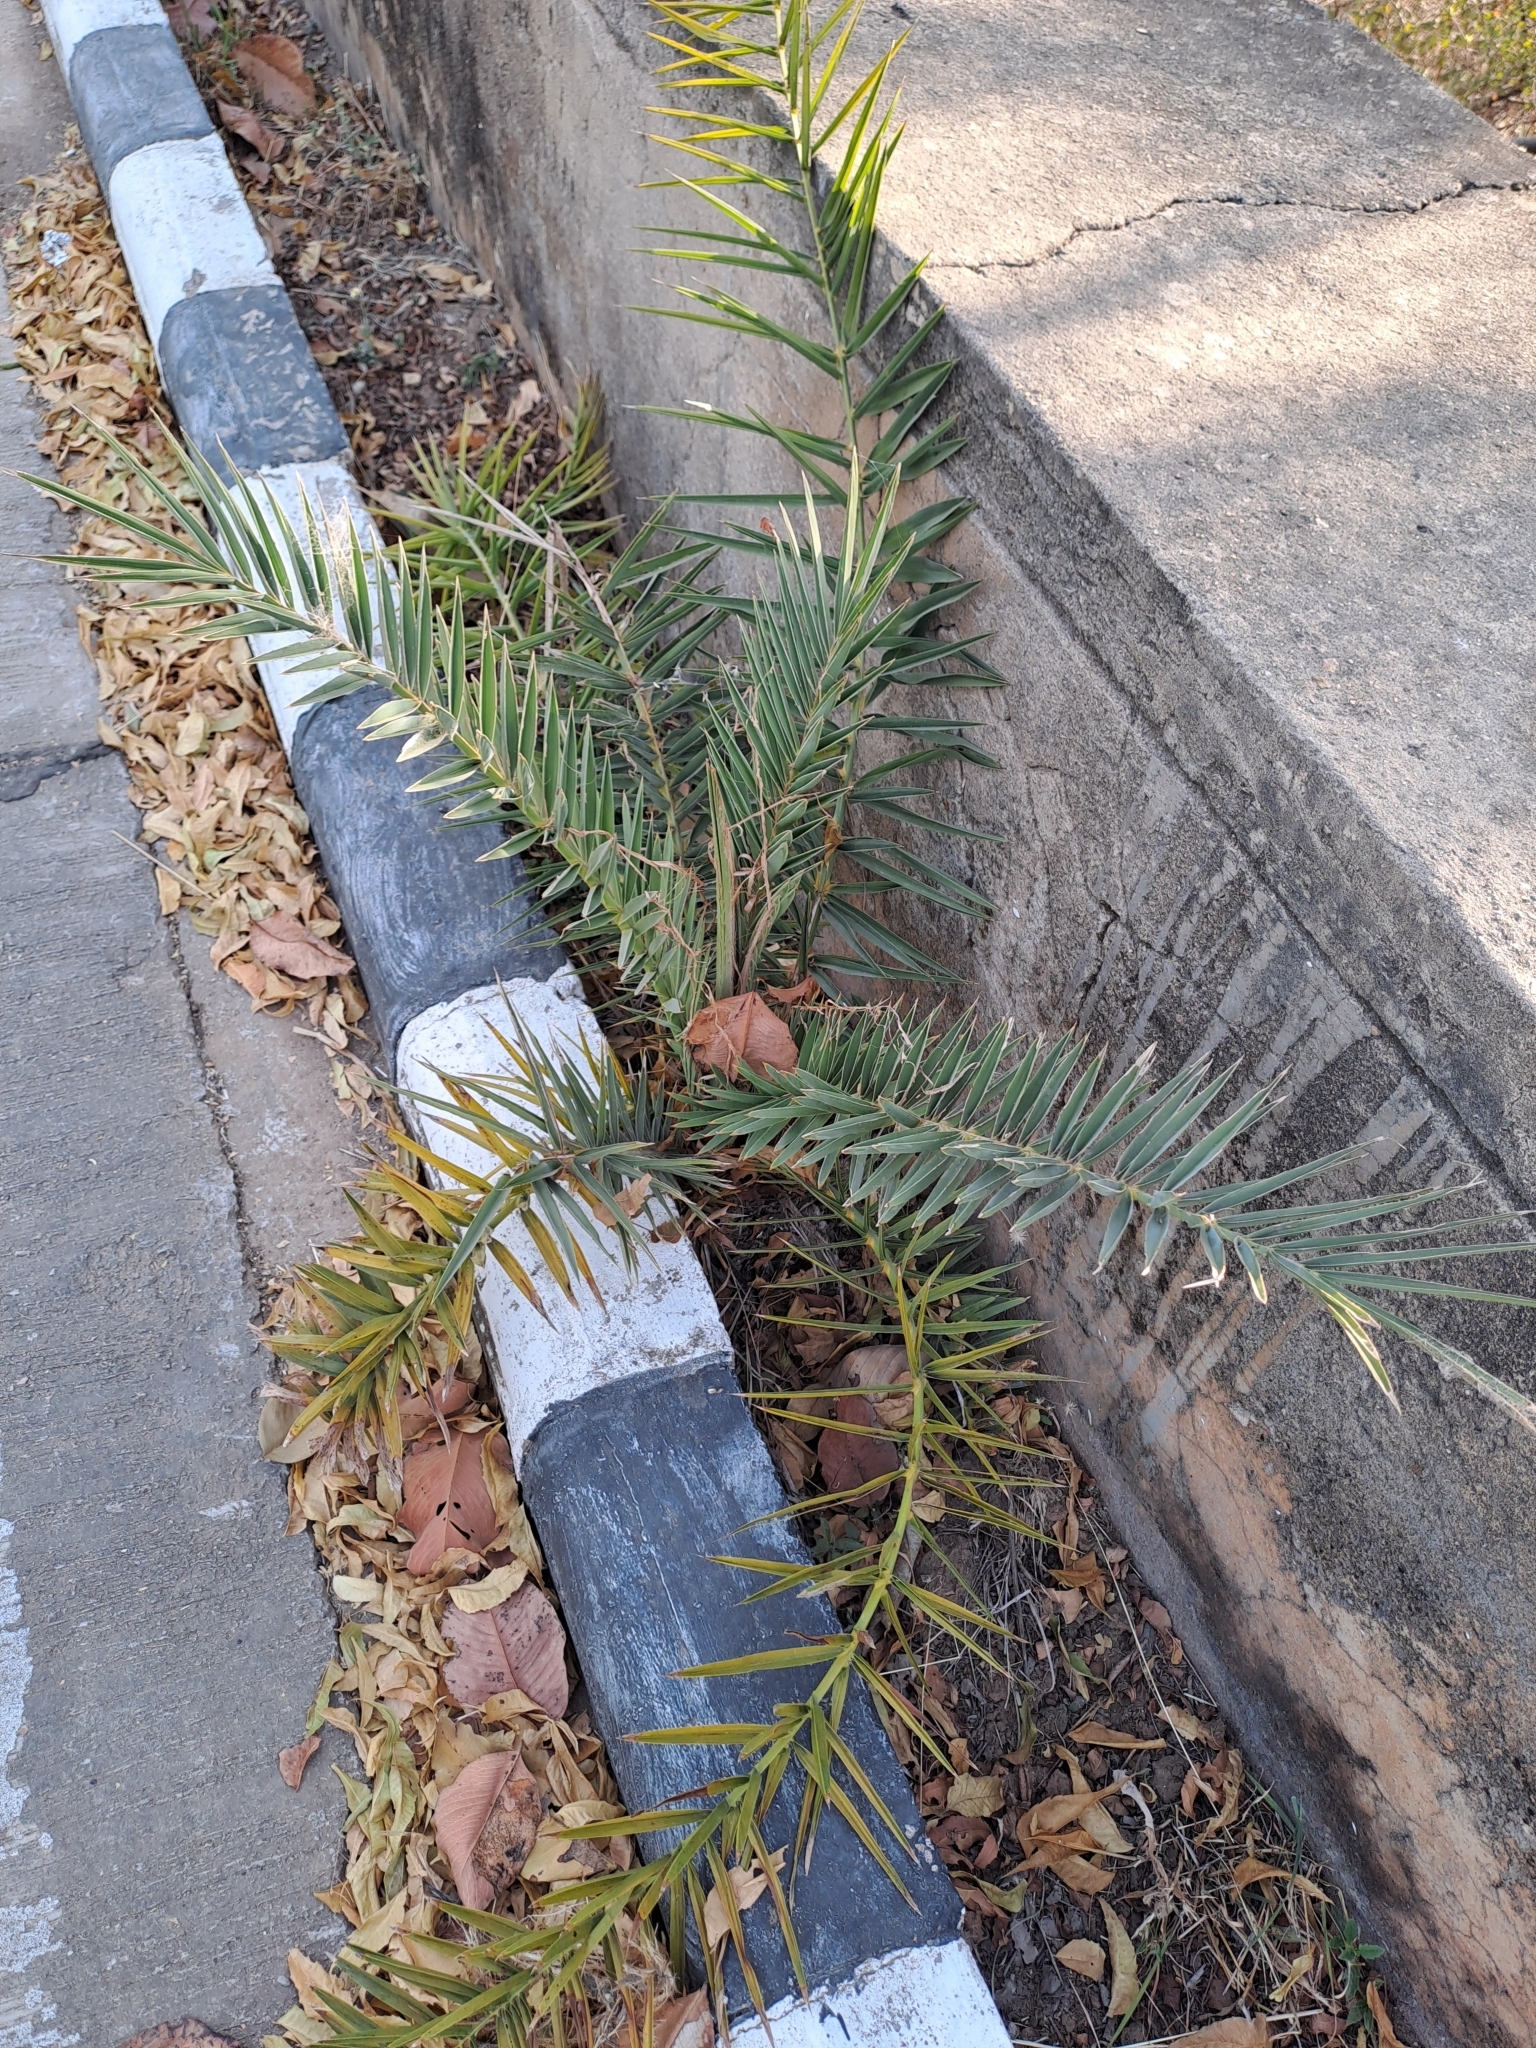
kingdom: Plantae
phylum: Tracheophyta
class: Liliopsida
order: Arecales
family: Arecaceae
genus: Phoenix
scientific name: Phoenix sylvestris
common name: Wild date palm
